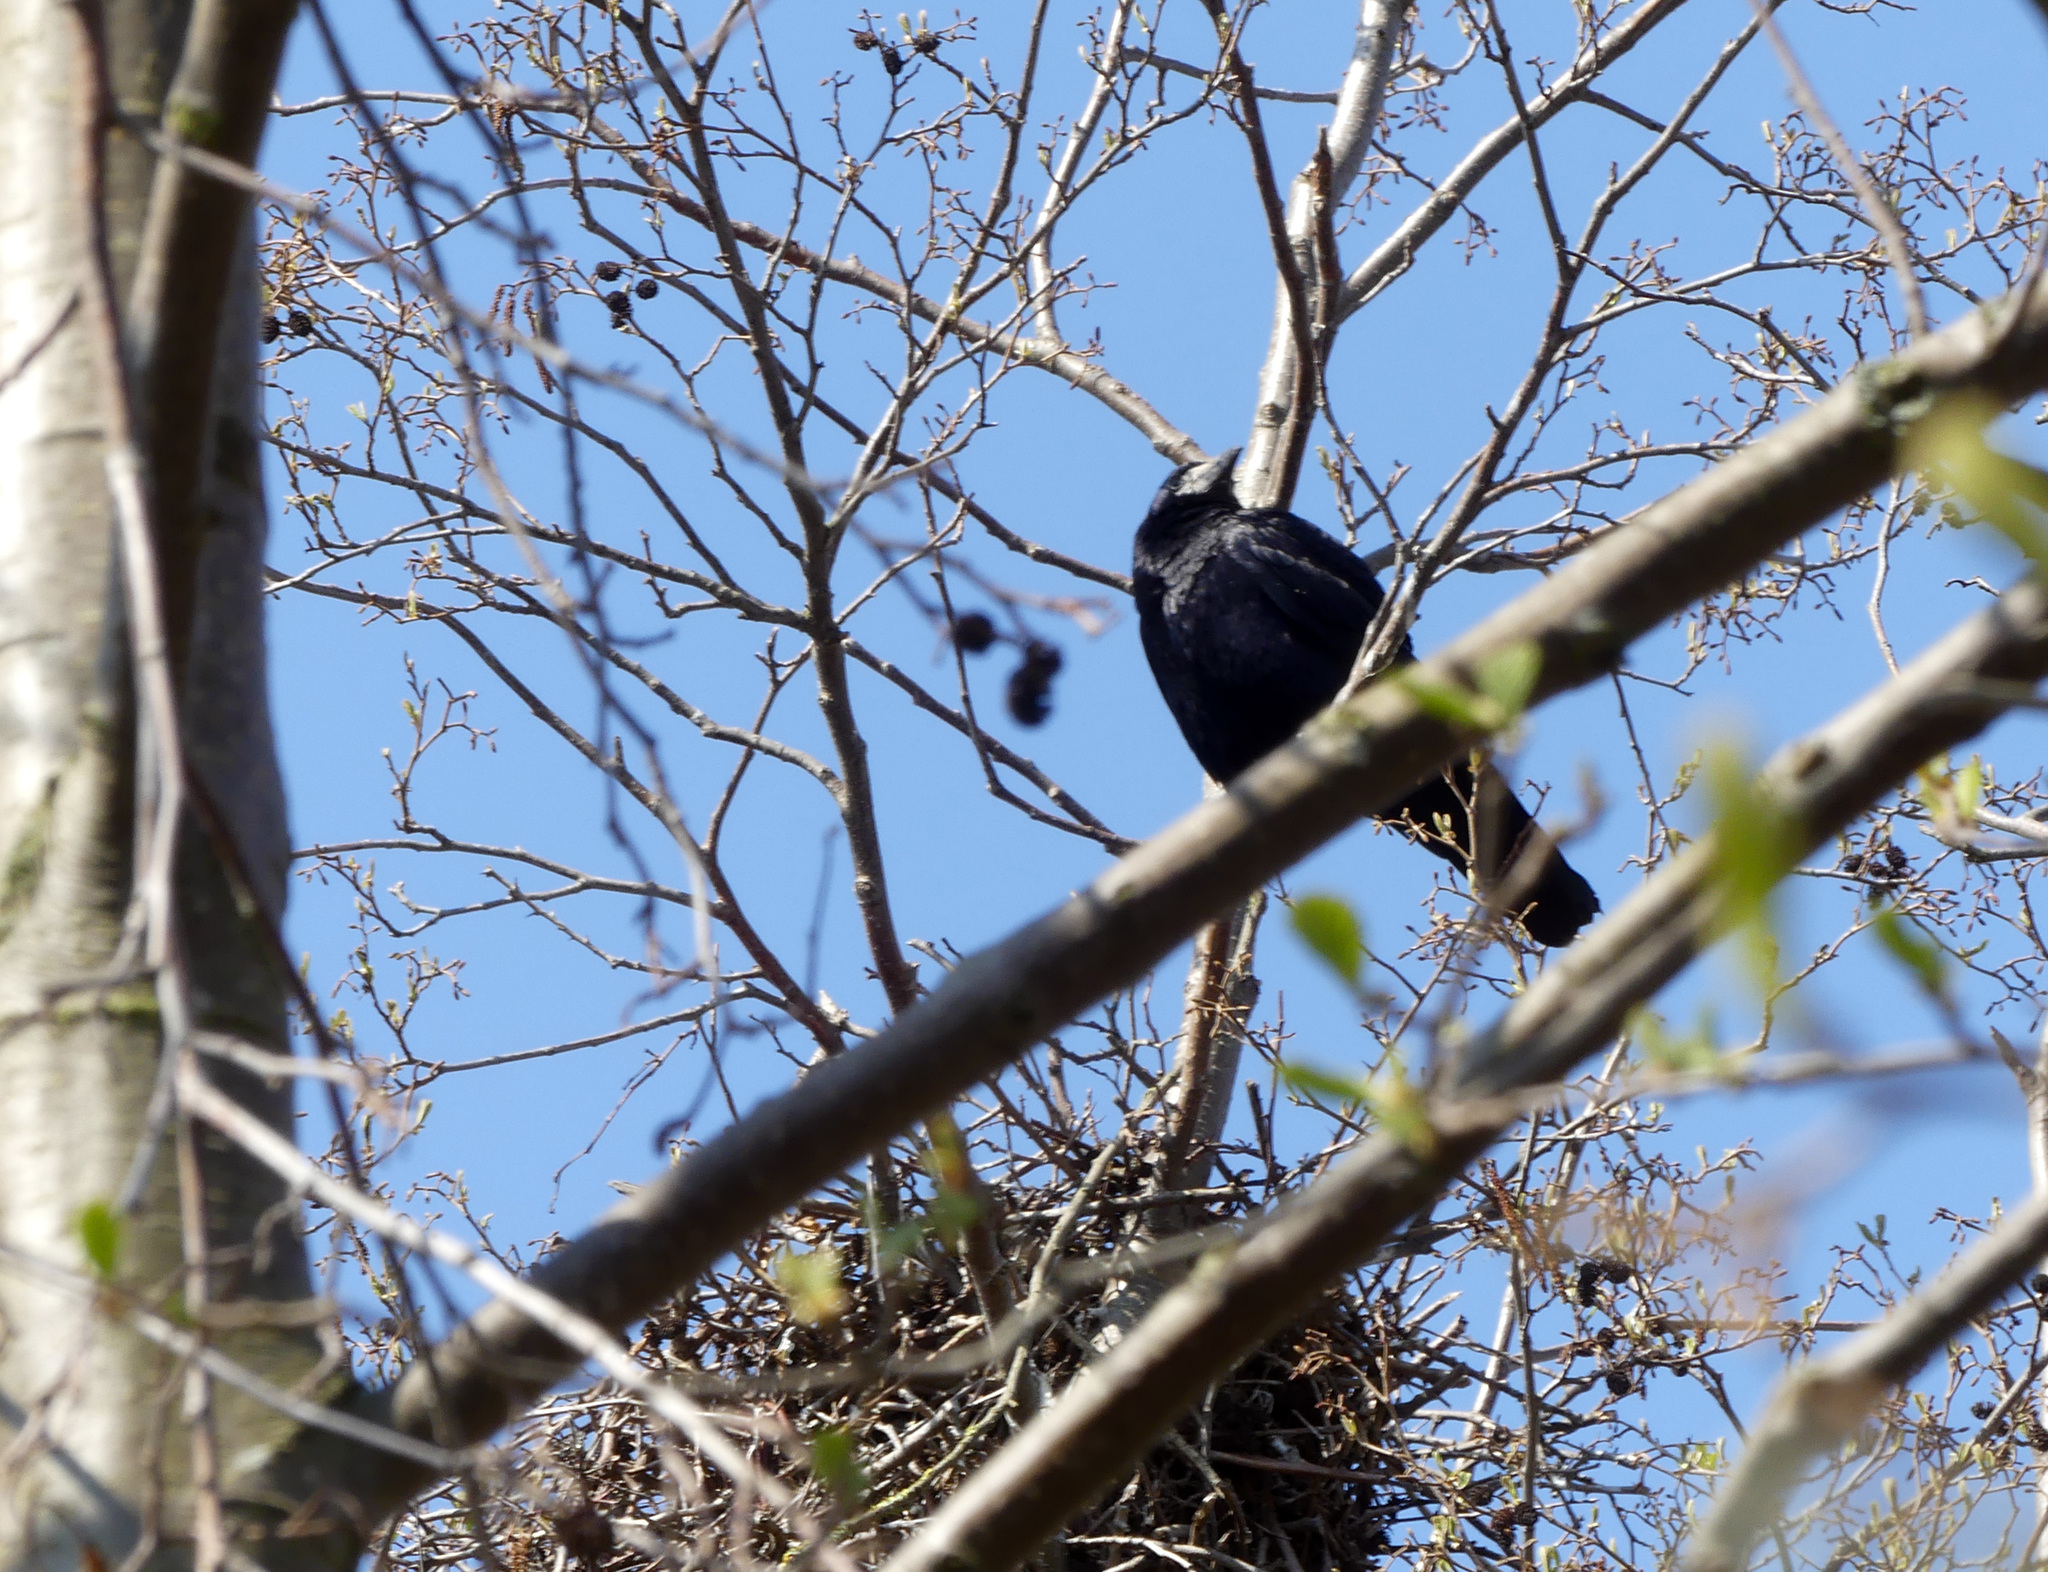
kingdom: Animalia
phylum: Chordata
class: Aves
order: Passeriformes
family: Corvidae
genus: Corvus
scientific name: Corvus frugilegus
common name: Rook
